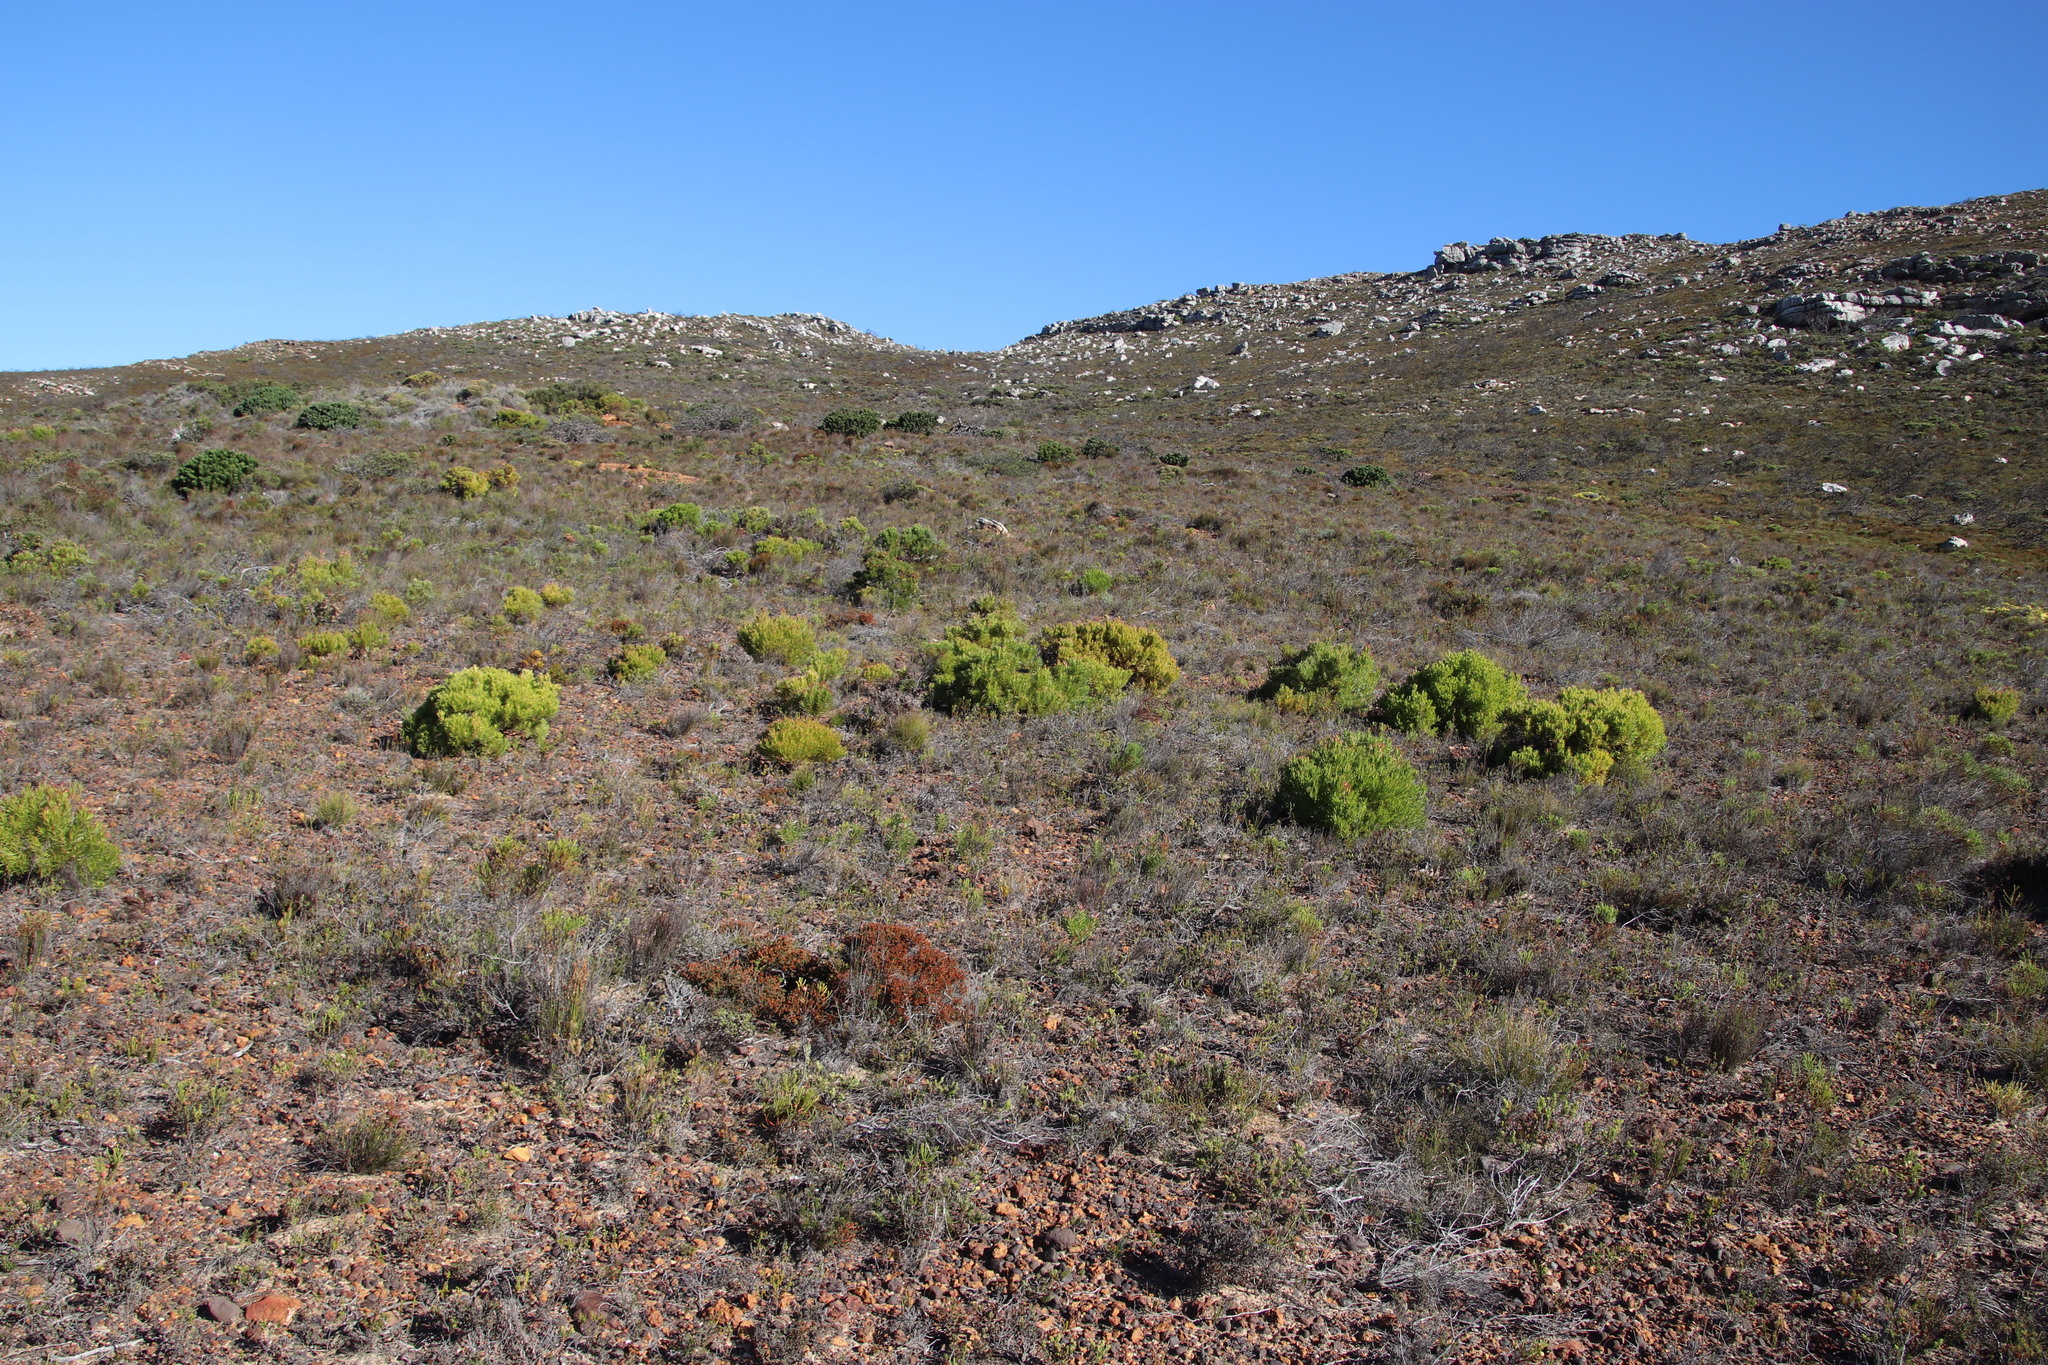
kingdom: Plantae
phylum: Tracheophyta
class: Magnoliopsida
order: Proteales
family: Proteaceae
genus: Leucadendron
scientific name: Leucadendron xanthoconus
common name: Sickle-leaf conebush
